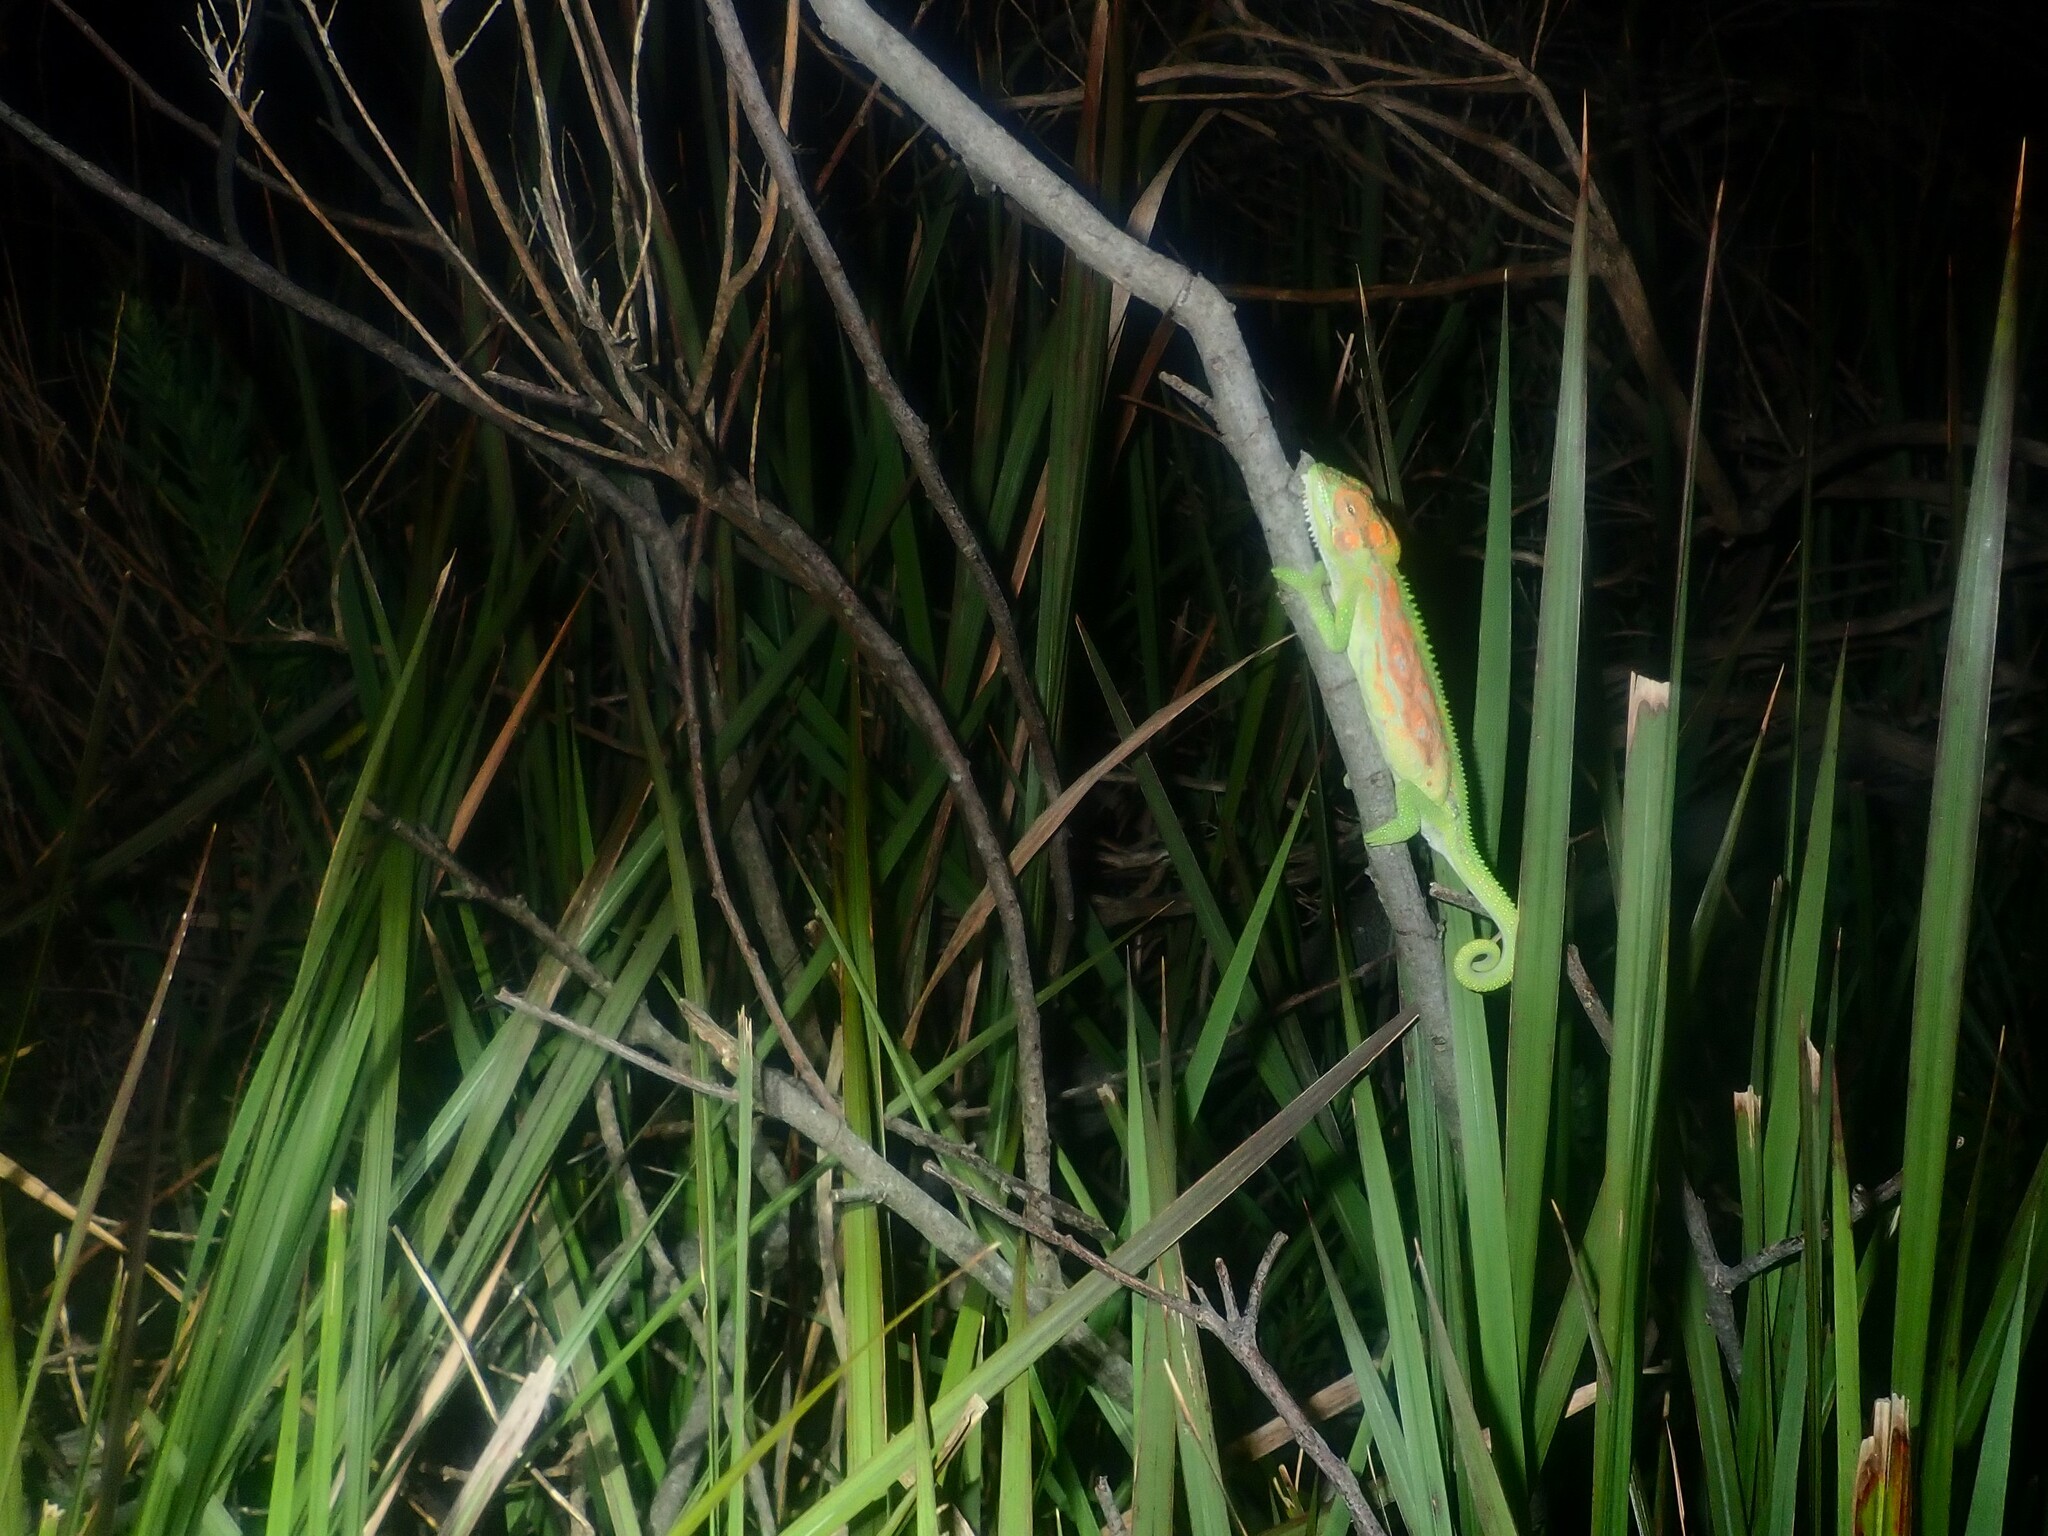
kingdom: Animalia
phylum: Chordata
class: Squamata
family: Chamaeleonidae
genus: Bradypodion
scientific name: Bradypodion pumilum
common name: Cape dwarf chameleon
